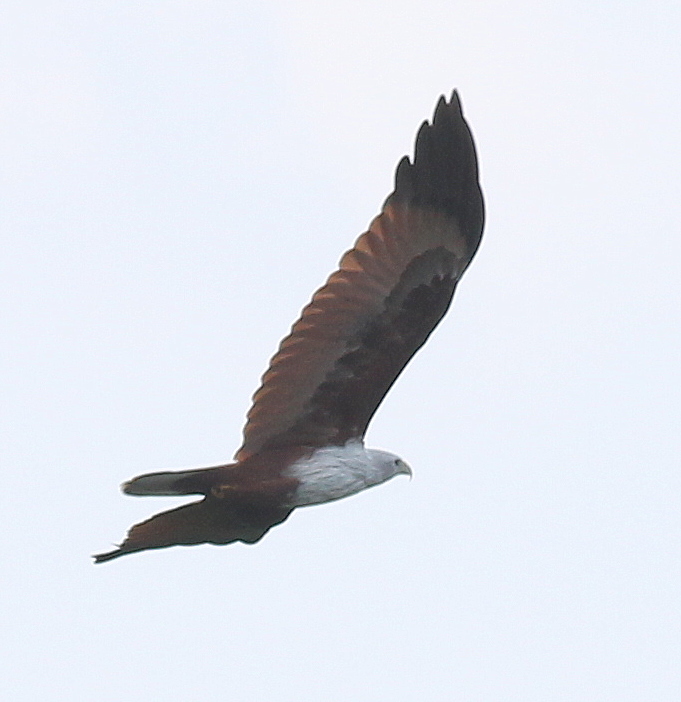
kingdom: Animalia
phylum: Chordata
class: Aves
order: Accipitriformes
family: Accipitridae
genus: Haliastur
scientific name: Haliastur indus
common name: Brahminy kite
